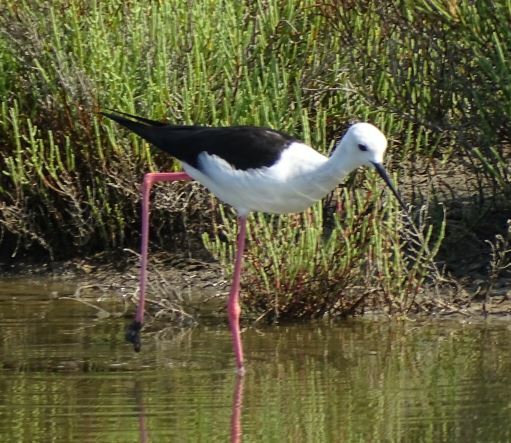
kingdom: Animalia
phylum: Chordata
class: Aves
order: Charadriiformes
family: Recurvirostridae
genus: Himantopus
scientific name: Himantopus himantopus
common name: Black-winged stilt
